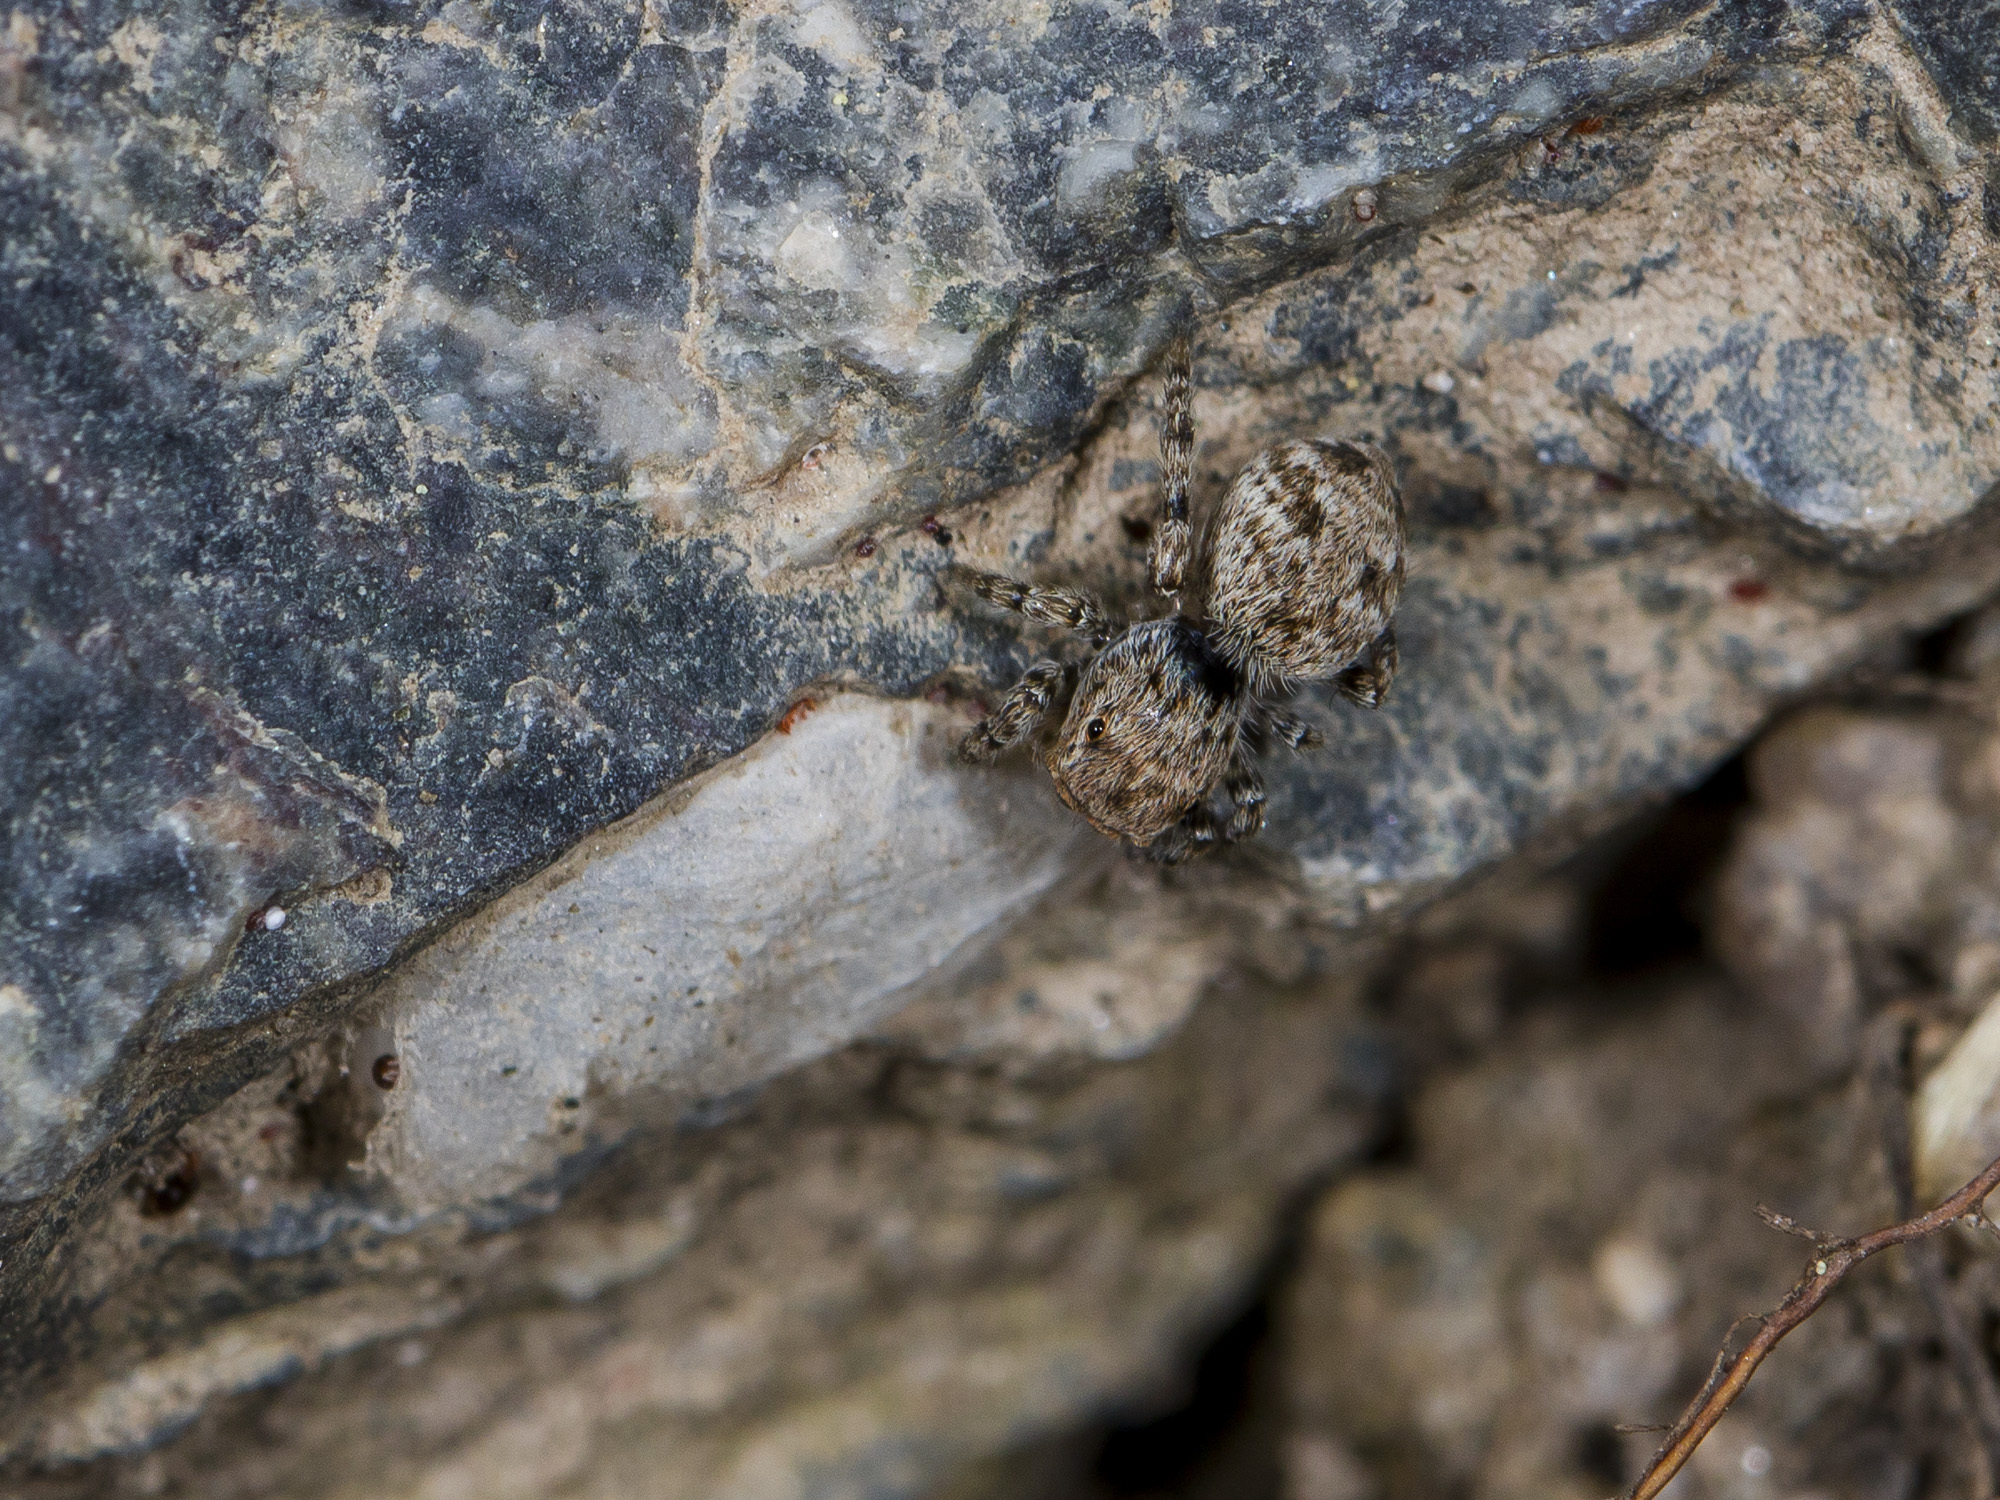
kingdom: Animalia
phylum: Arthropoda
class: Arachnida
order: Araneae
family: Salticidae
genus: Attulus
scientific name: Attulus avocator
